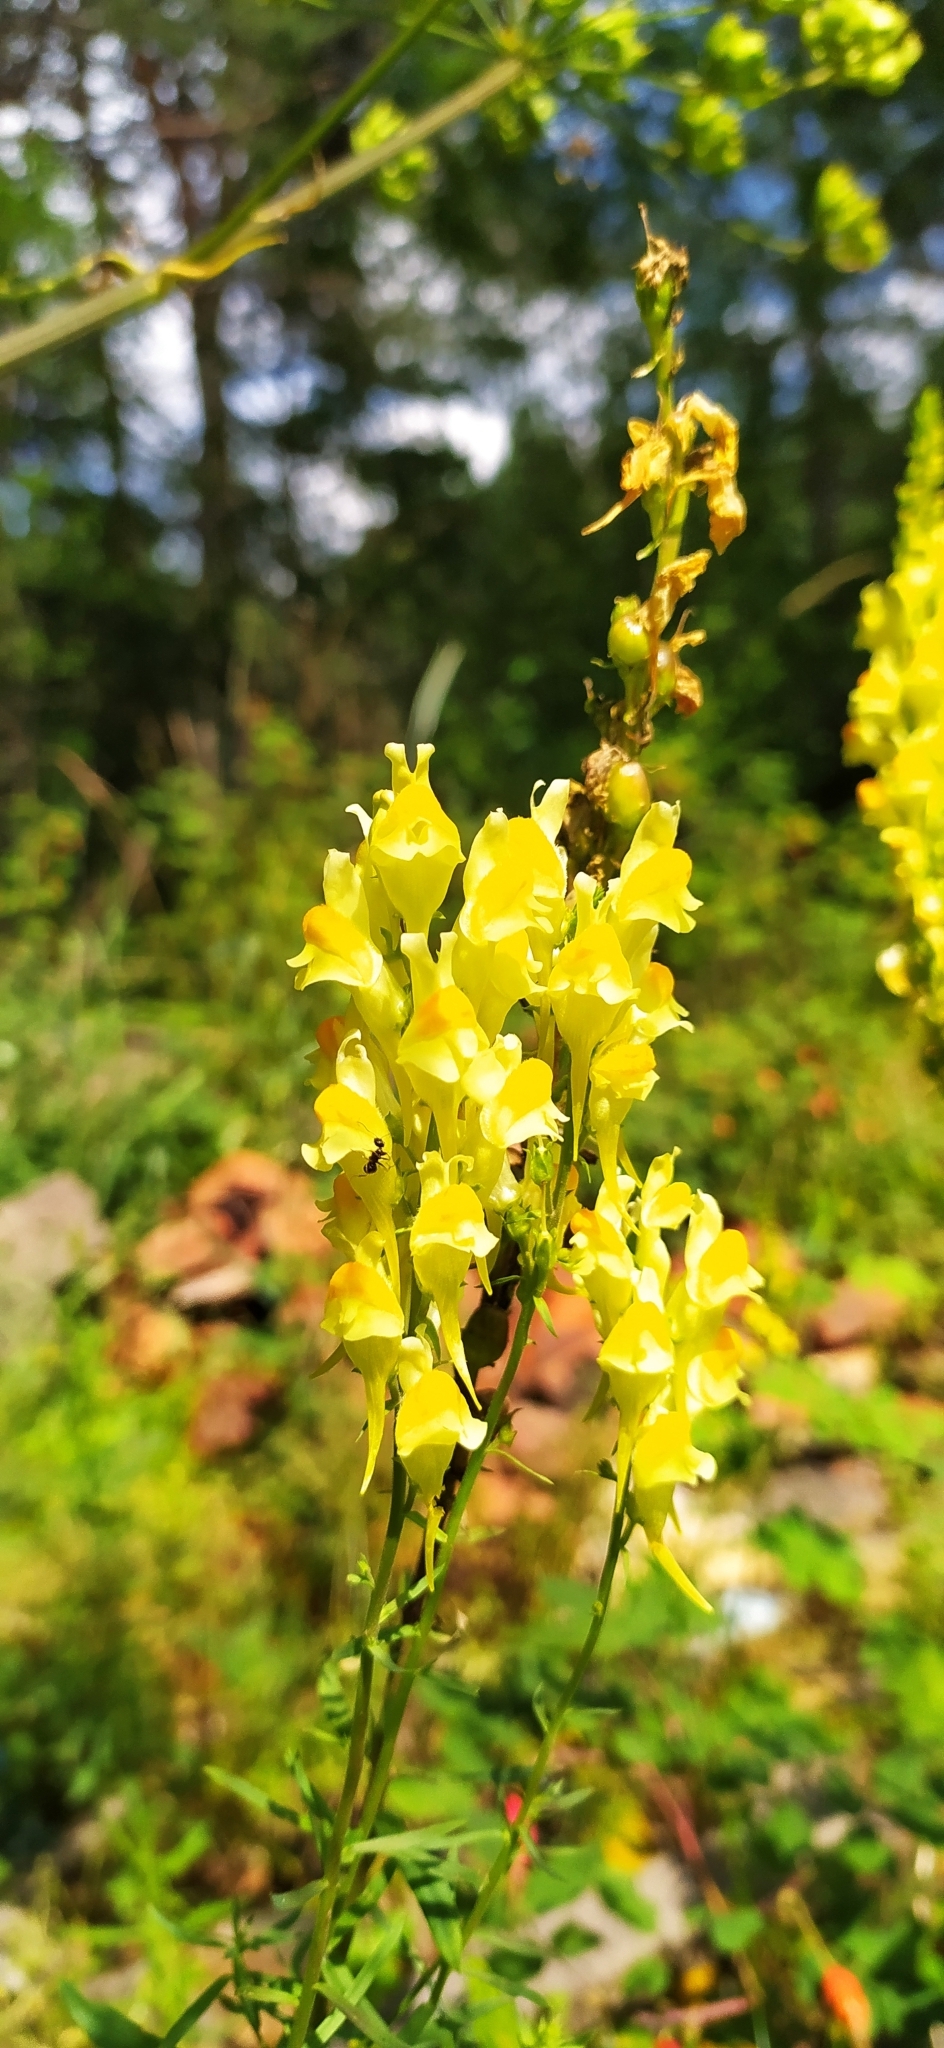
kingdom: Plantae
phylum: Tracheophyta
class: Magnoliopsida
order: Lamiales
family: Plantaginaceae
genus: Linaria
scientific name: Linaria vulgaris
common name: Butter and eggs
